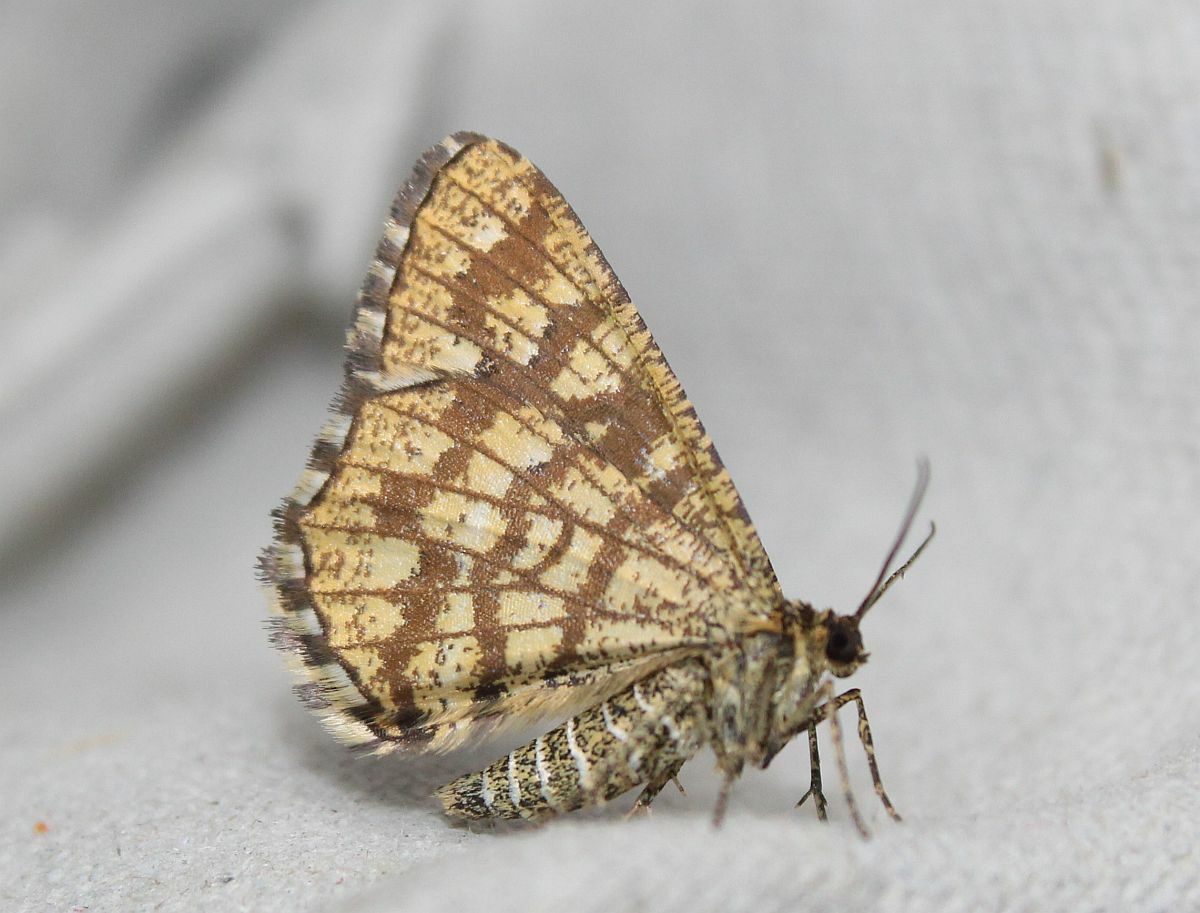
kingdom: Animalia
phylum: Arthropoda
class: Insecta
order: Lepidoptera
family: Geometridae
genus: Chiasmia
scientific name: Chiasmia clathrata
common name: Latticed heath
